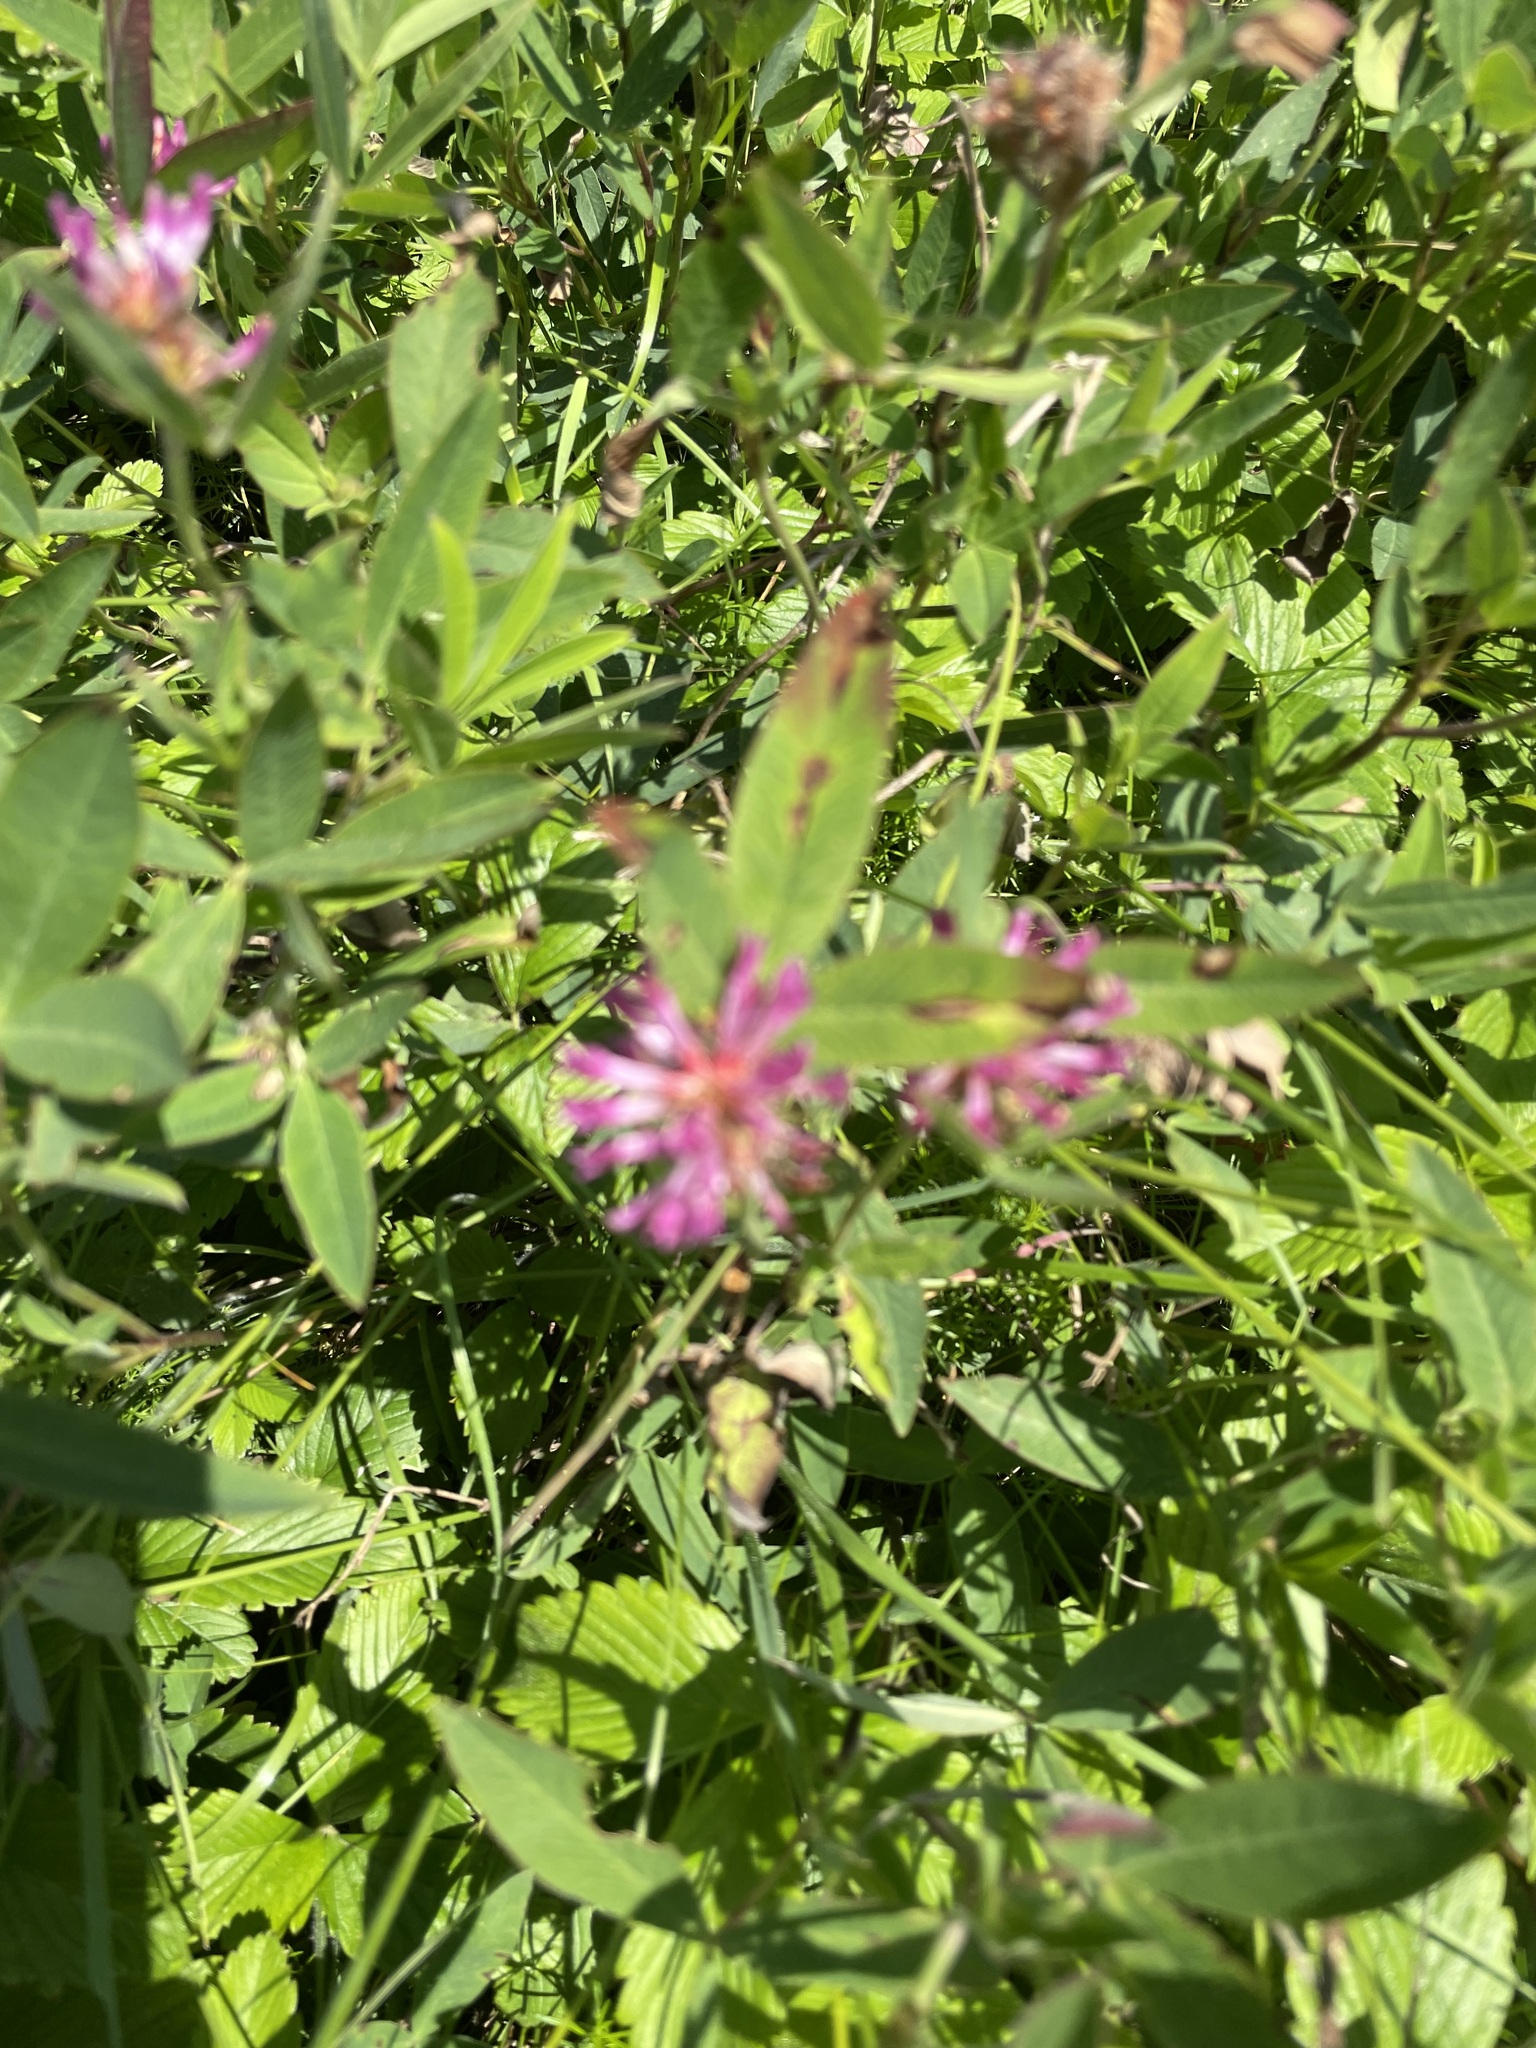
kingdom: Plantae
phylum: Tracheophyta
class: Magnoliopsida
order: Fabales
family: Fabaceae
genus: Trifolium
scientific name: Trifolium medium
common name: Zigzag clover
